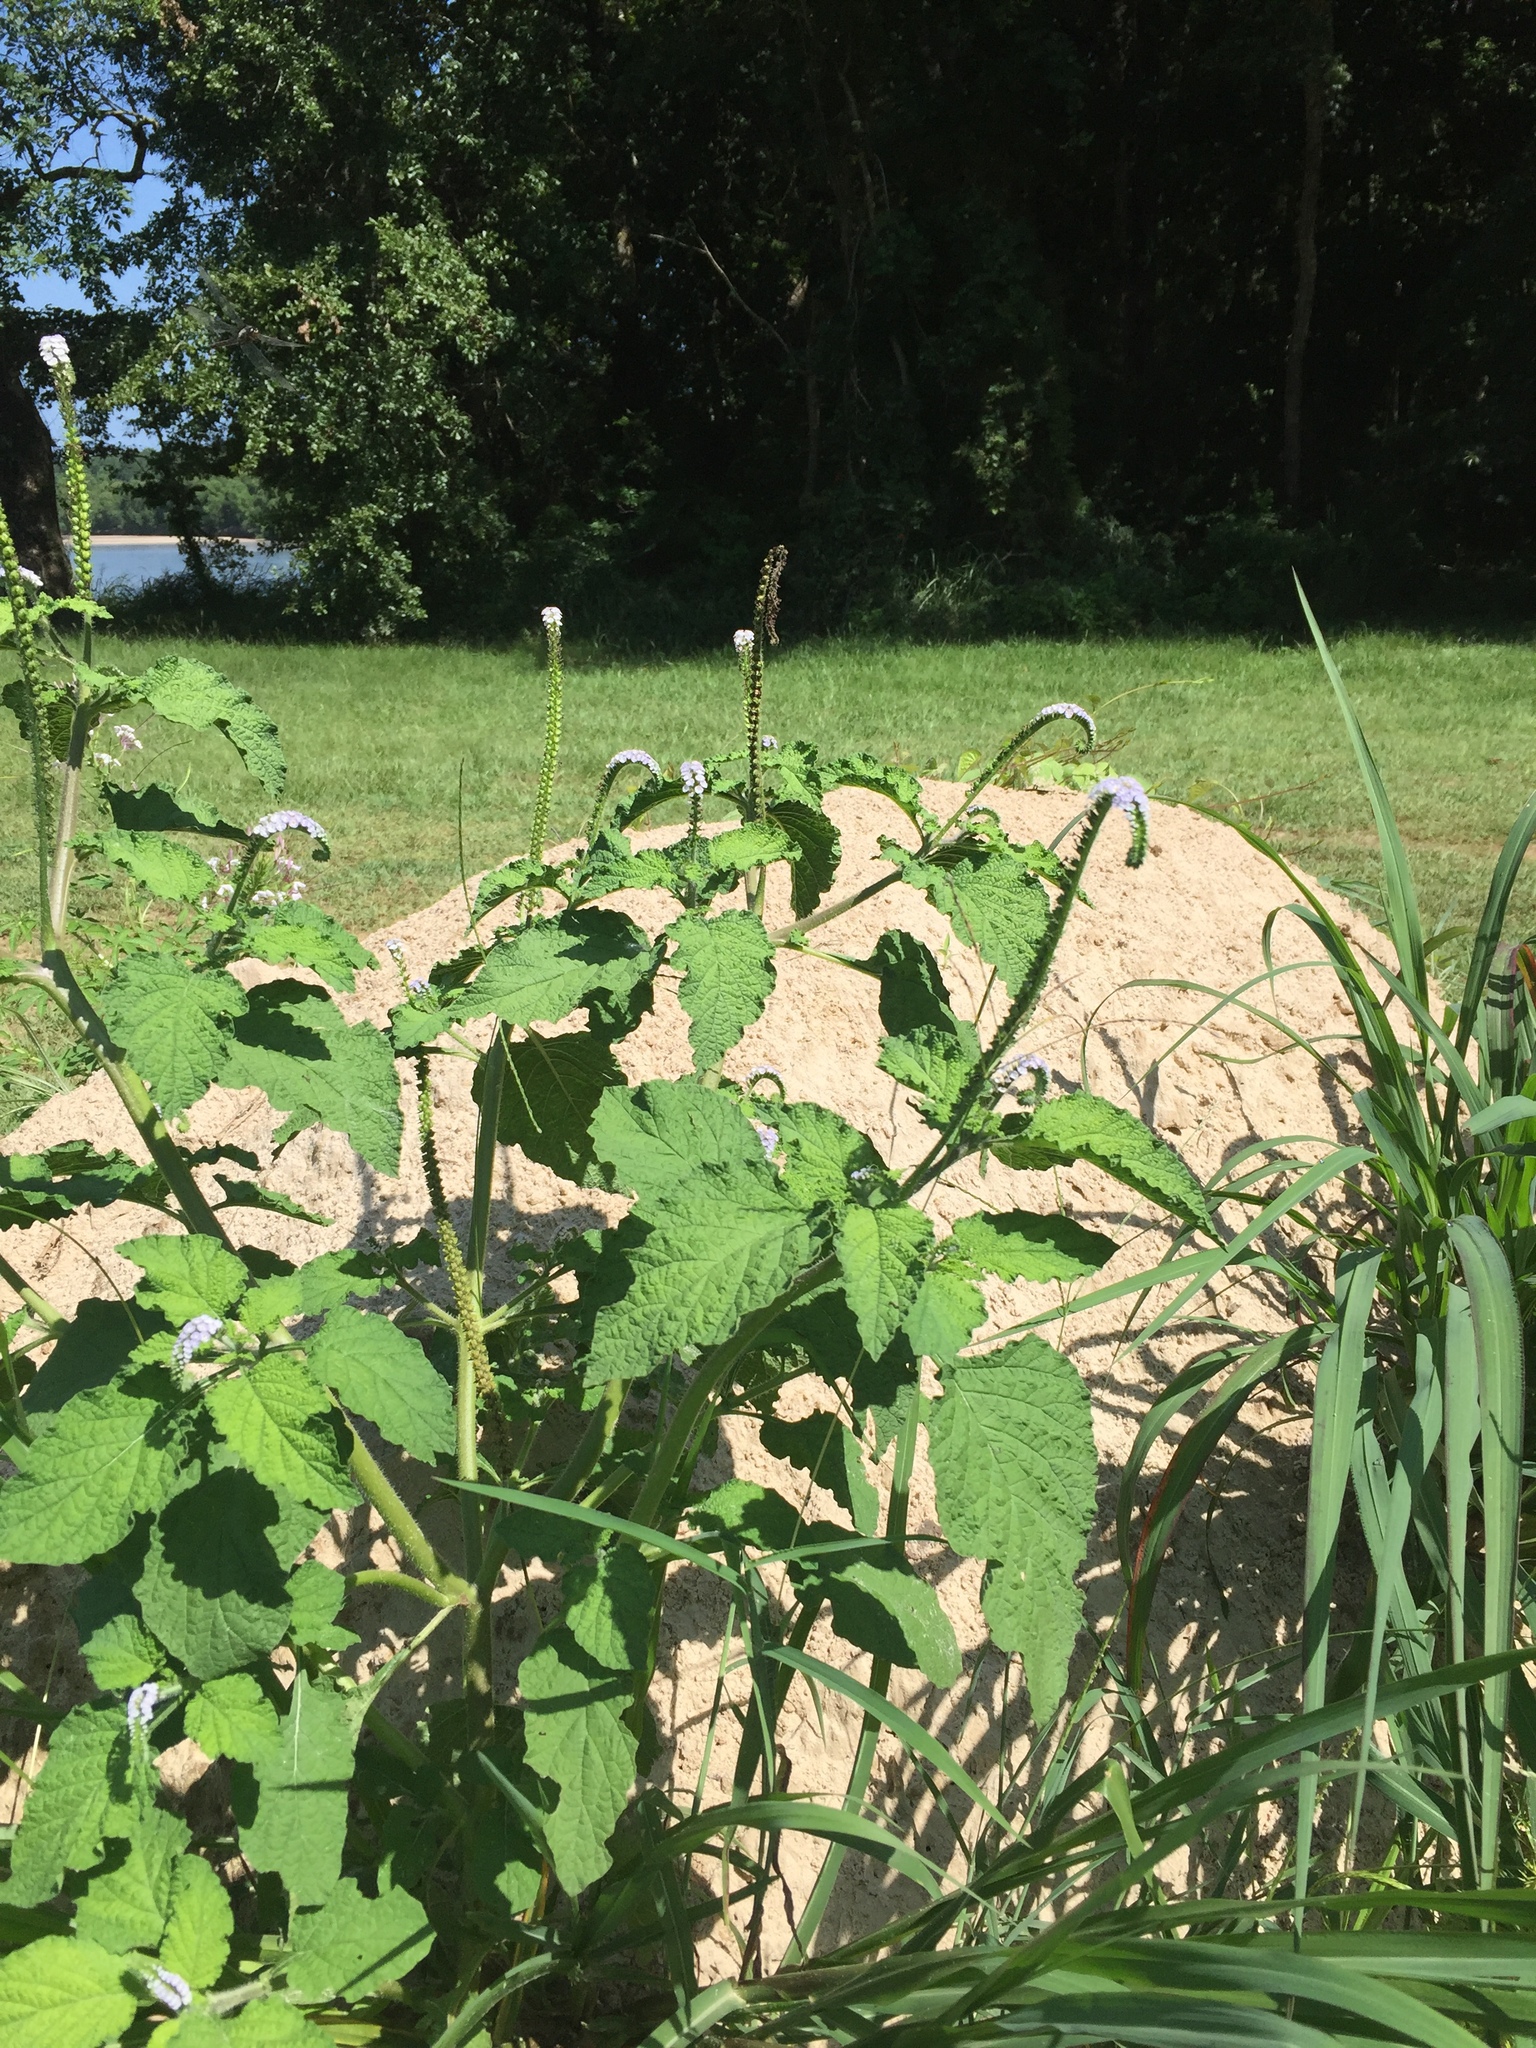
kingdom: Plantae
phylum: Tracheophyta
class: Magnoliopsida
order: Boraginales
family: Heliotropiaceae
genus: Heliotropium
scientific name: Heliotropium indicum
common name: Indian heliotrope
